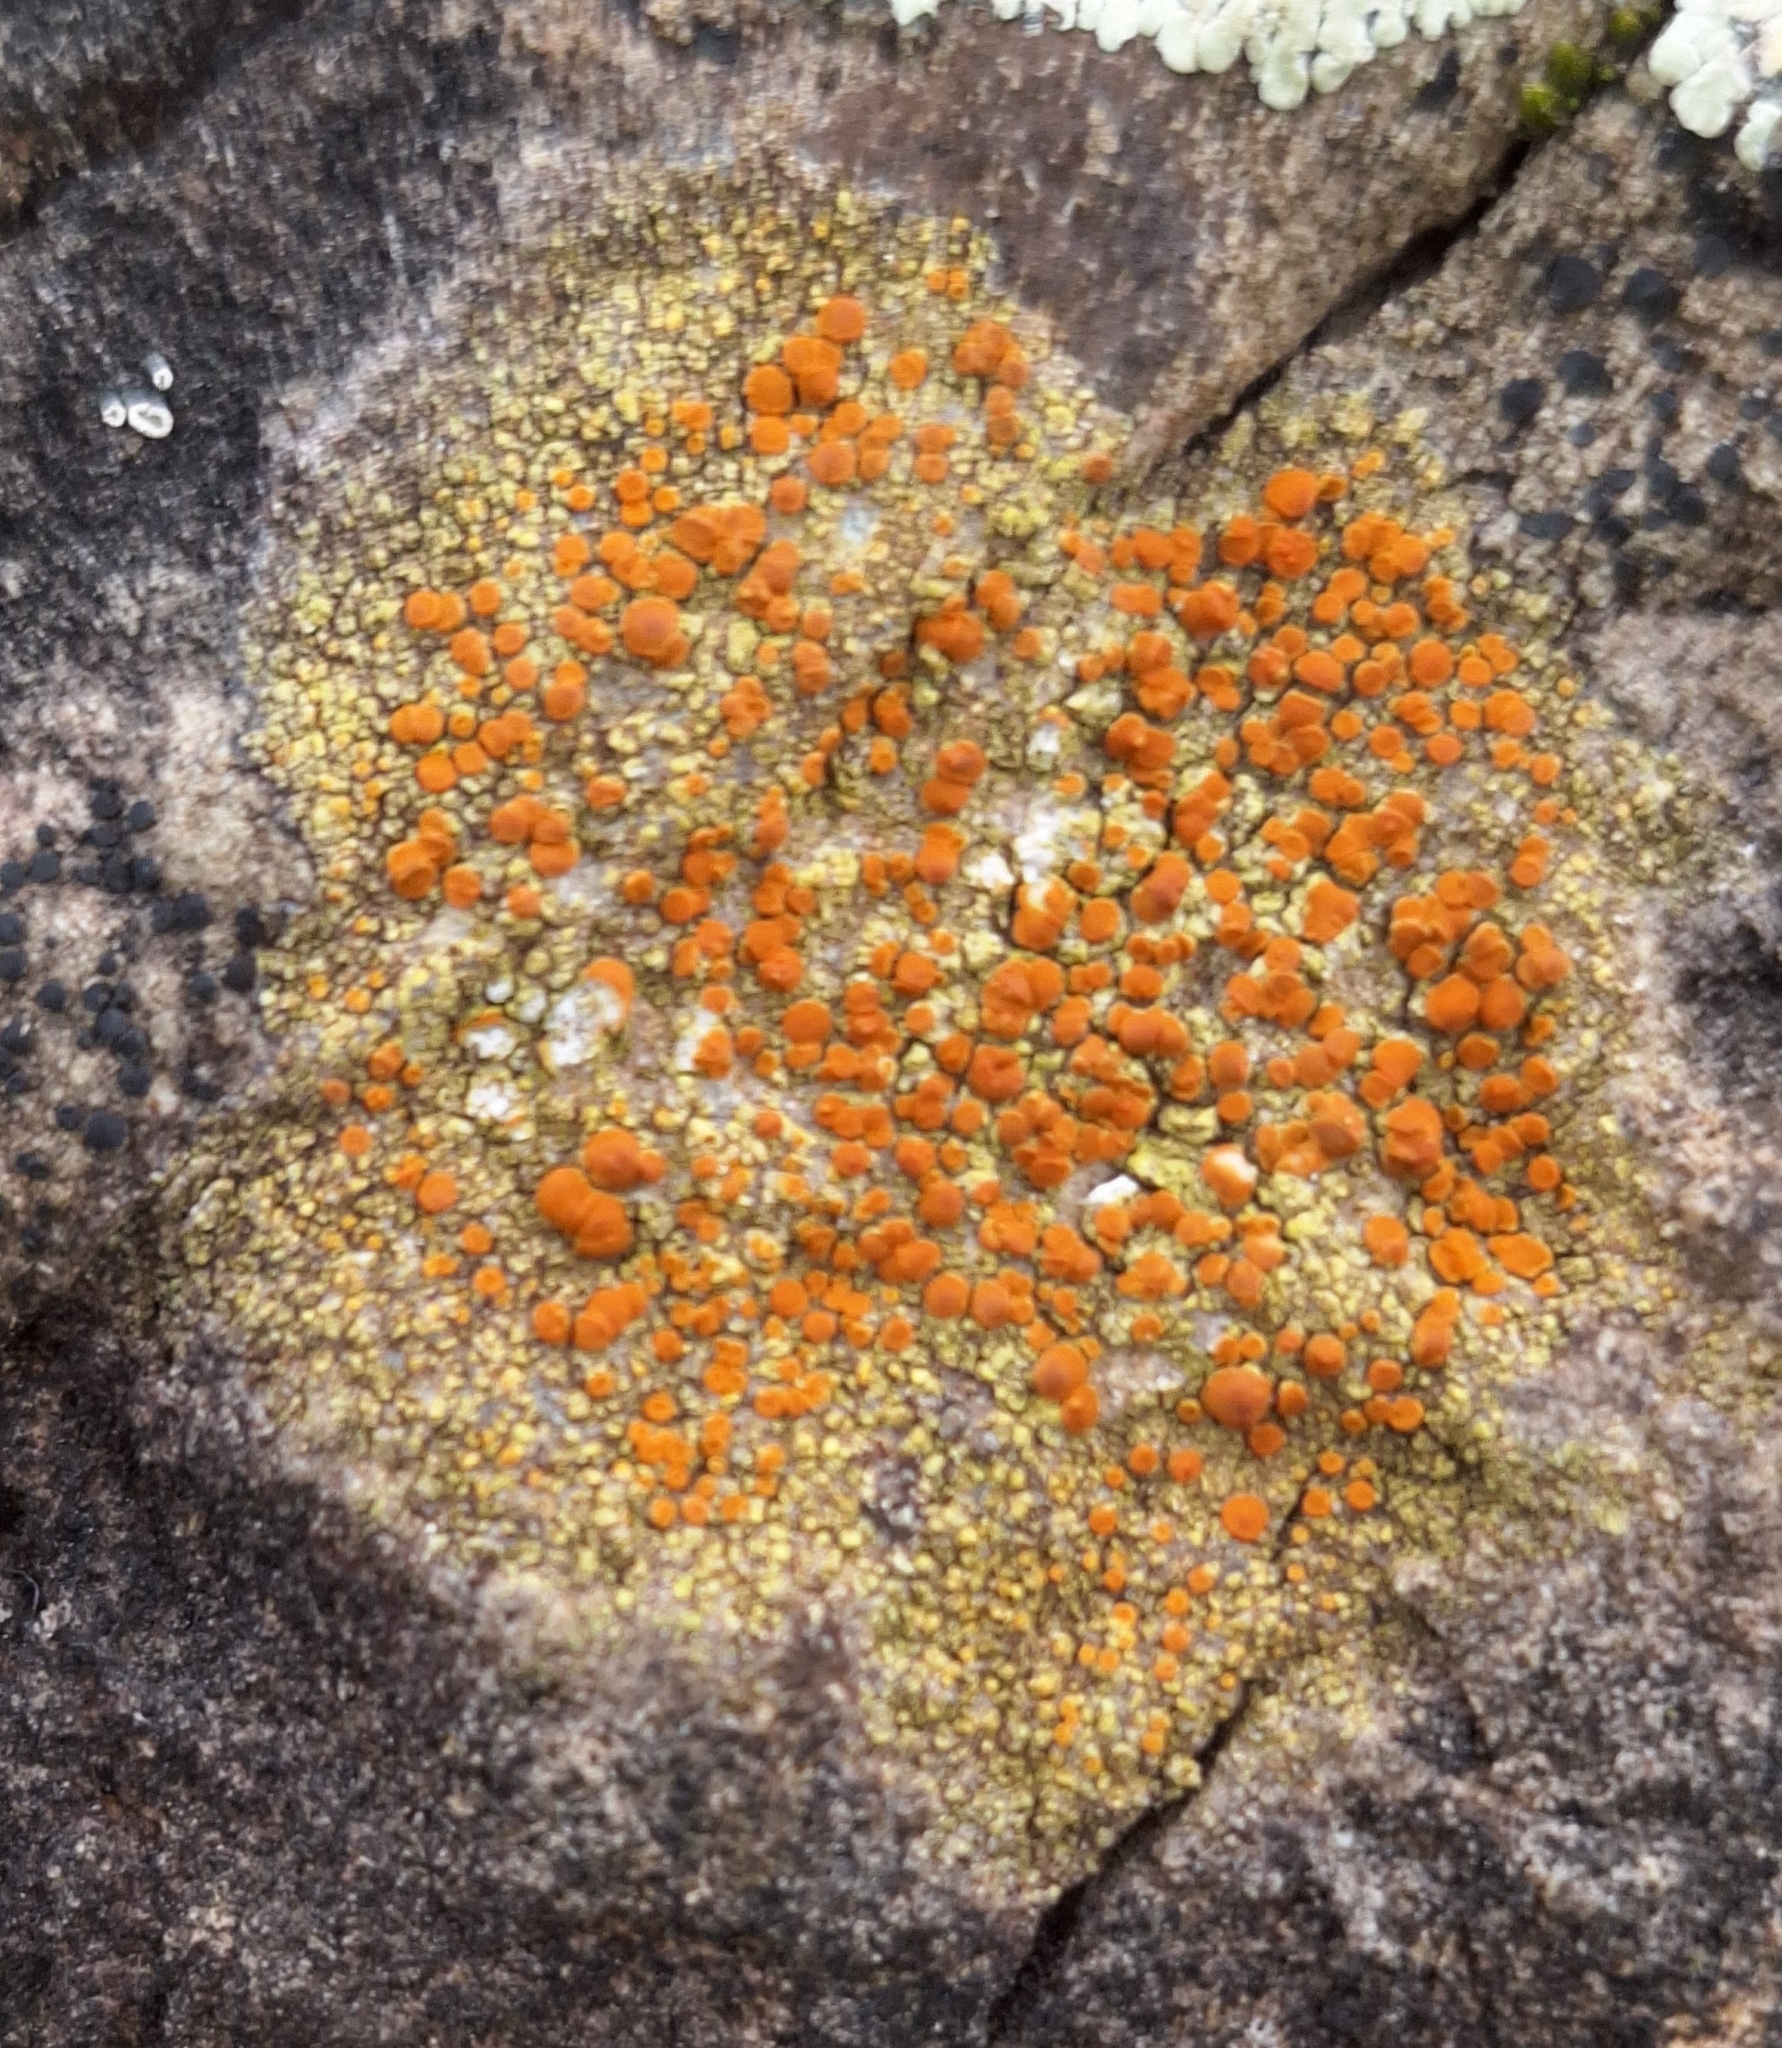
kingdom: Fungi
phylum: Ascomycota
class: Lecanoromycetes
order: Teloschistales
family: Teloschistaceae
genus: Gyalolechia
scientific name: Gyalolechia flavovirescens
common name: Sulphur firedot
